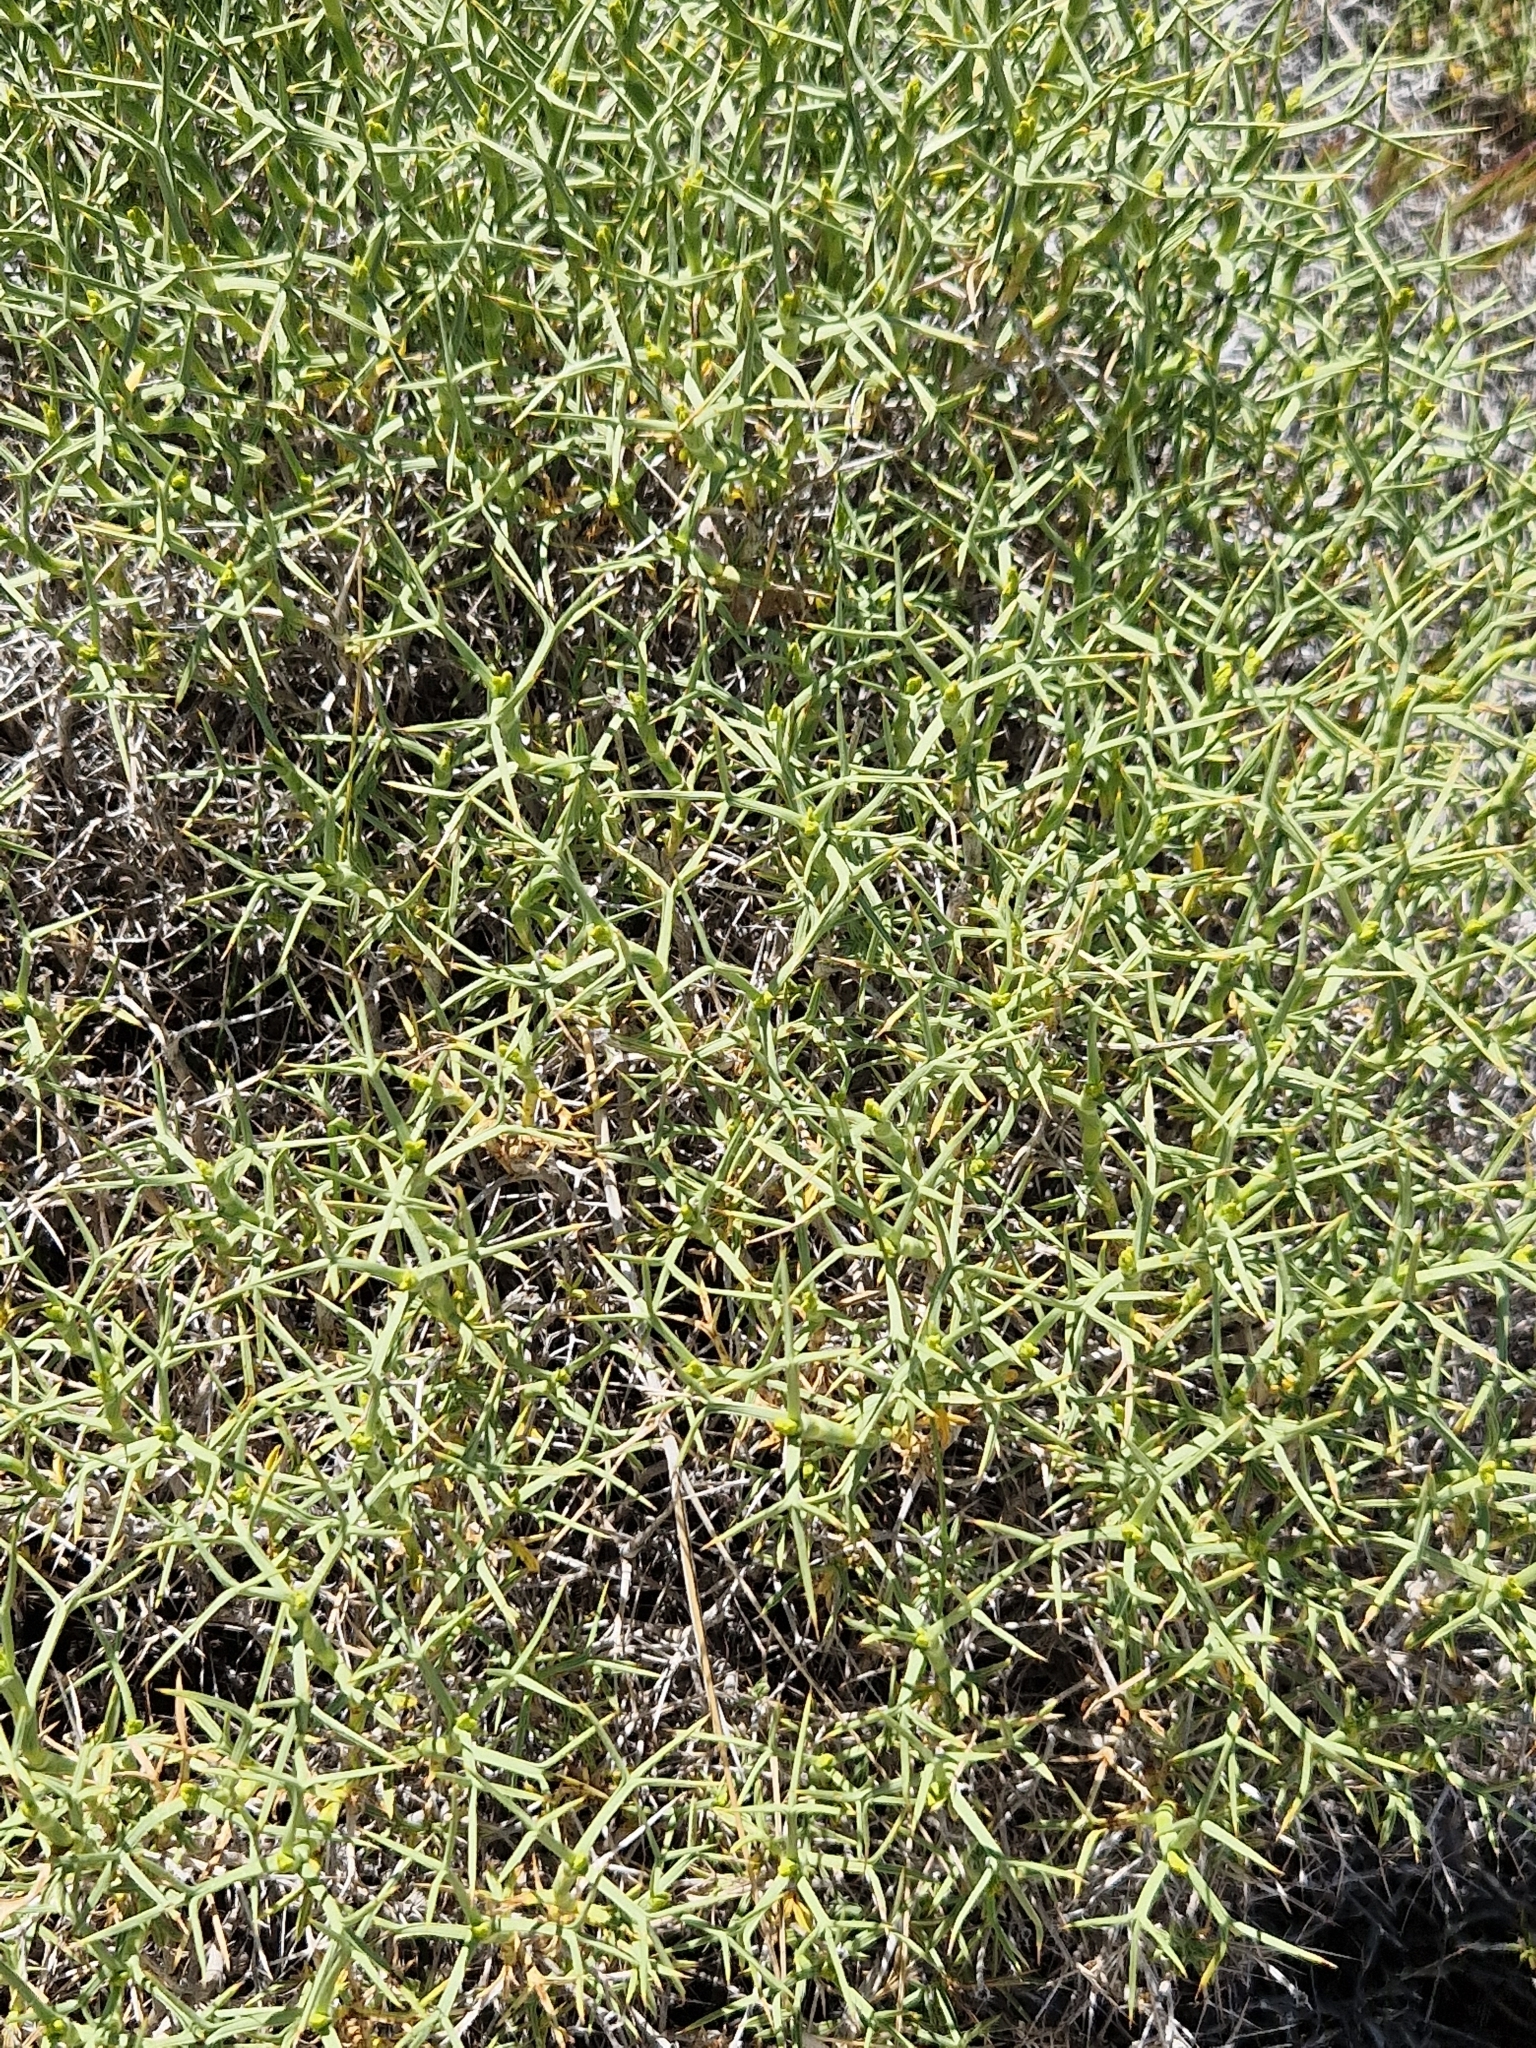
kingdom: Plantae
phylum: Tracheophyta
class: Magnoliopsida
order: Apiales
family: Apiaceae
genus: Azorella
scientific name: Azorella prolifera
